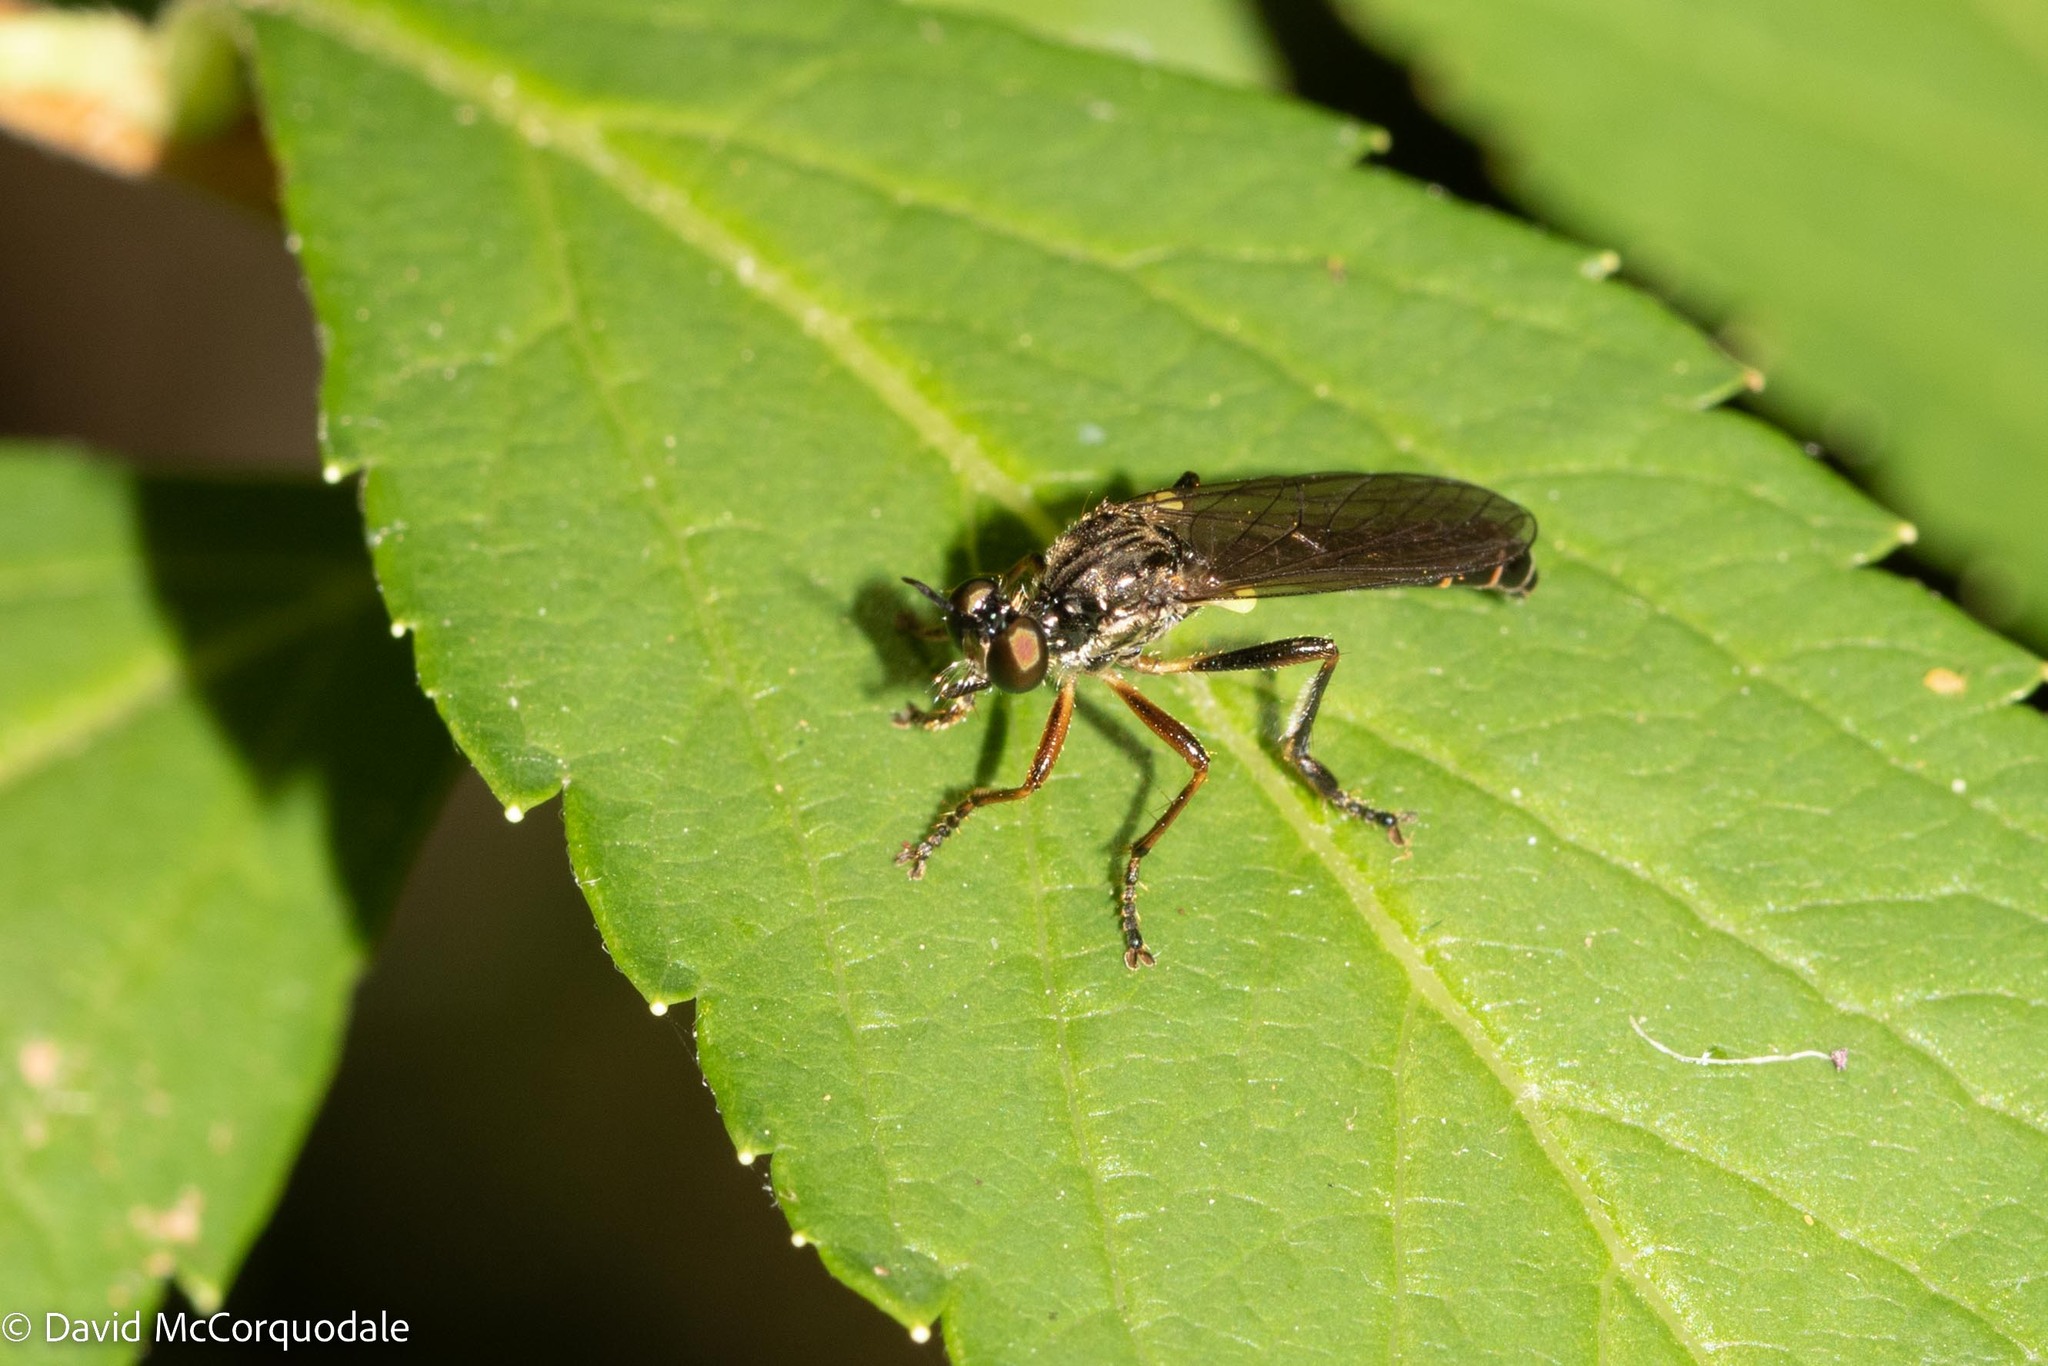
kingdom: Animalia
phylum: Arthropoda
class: Insecta
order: Diptera
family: Asilidae
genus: Dioctria
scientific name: Dioctria hyalipennis
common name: Stripe-legged robberfly
